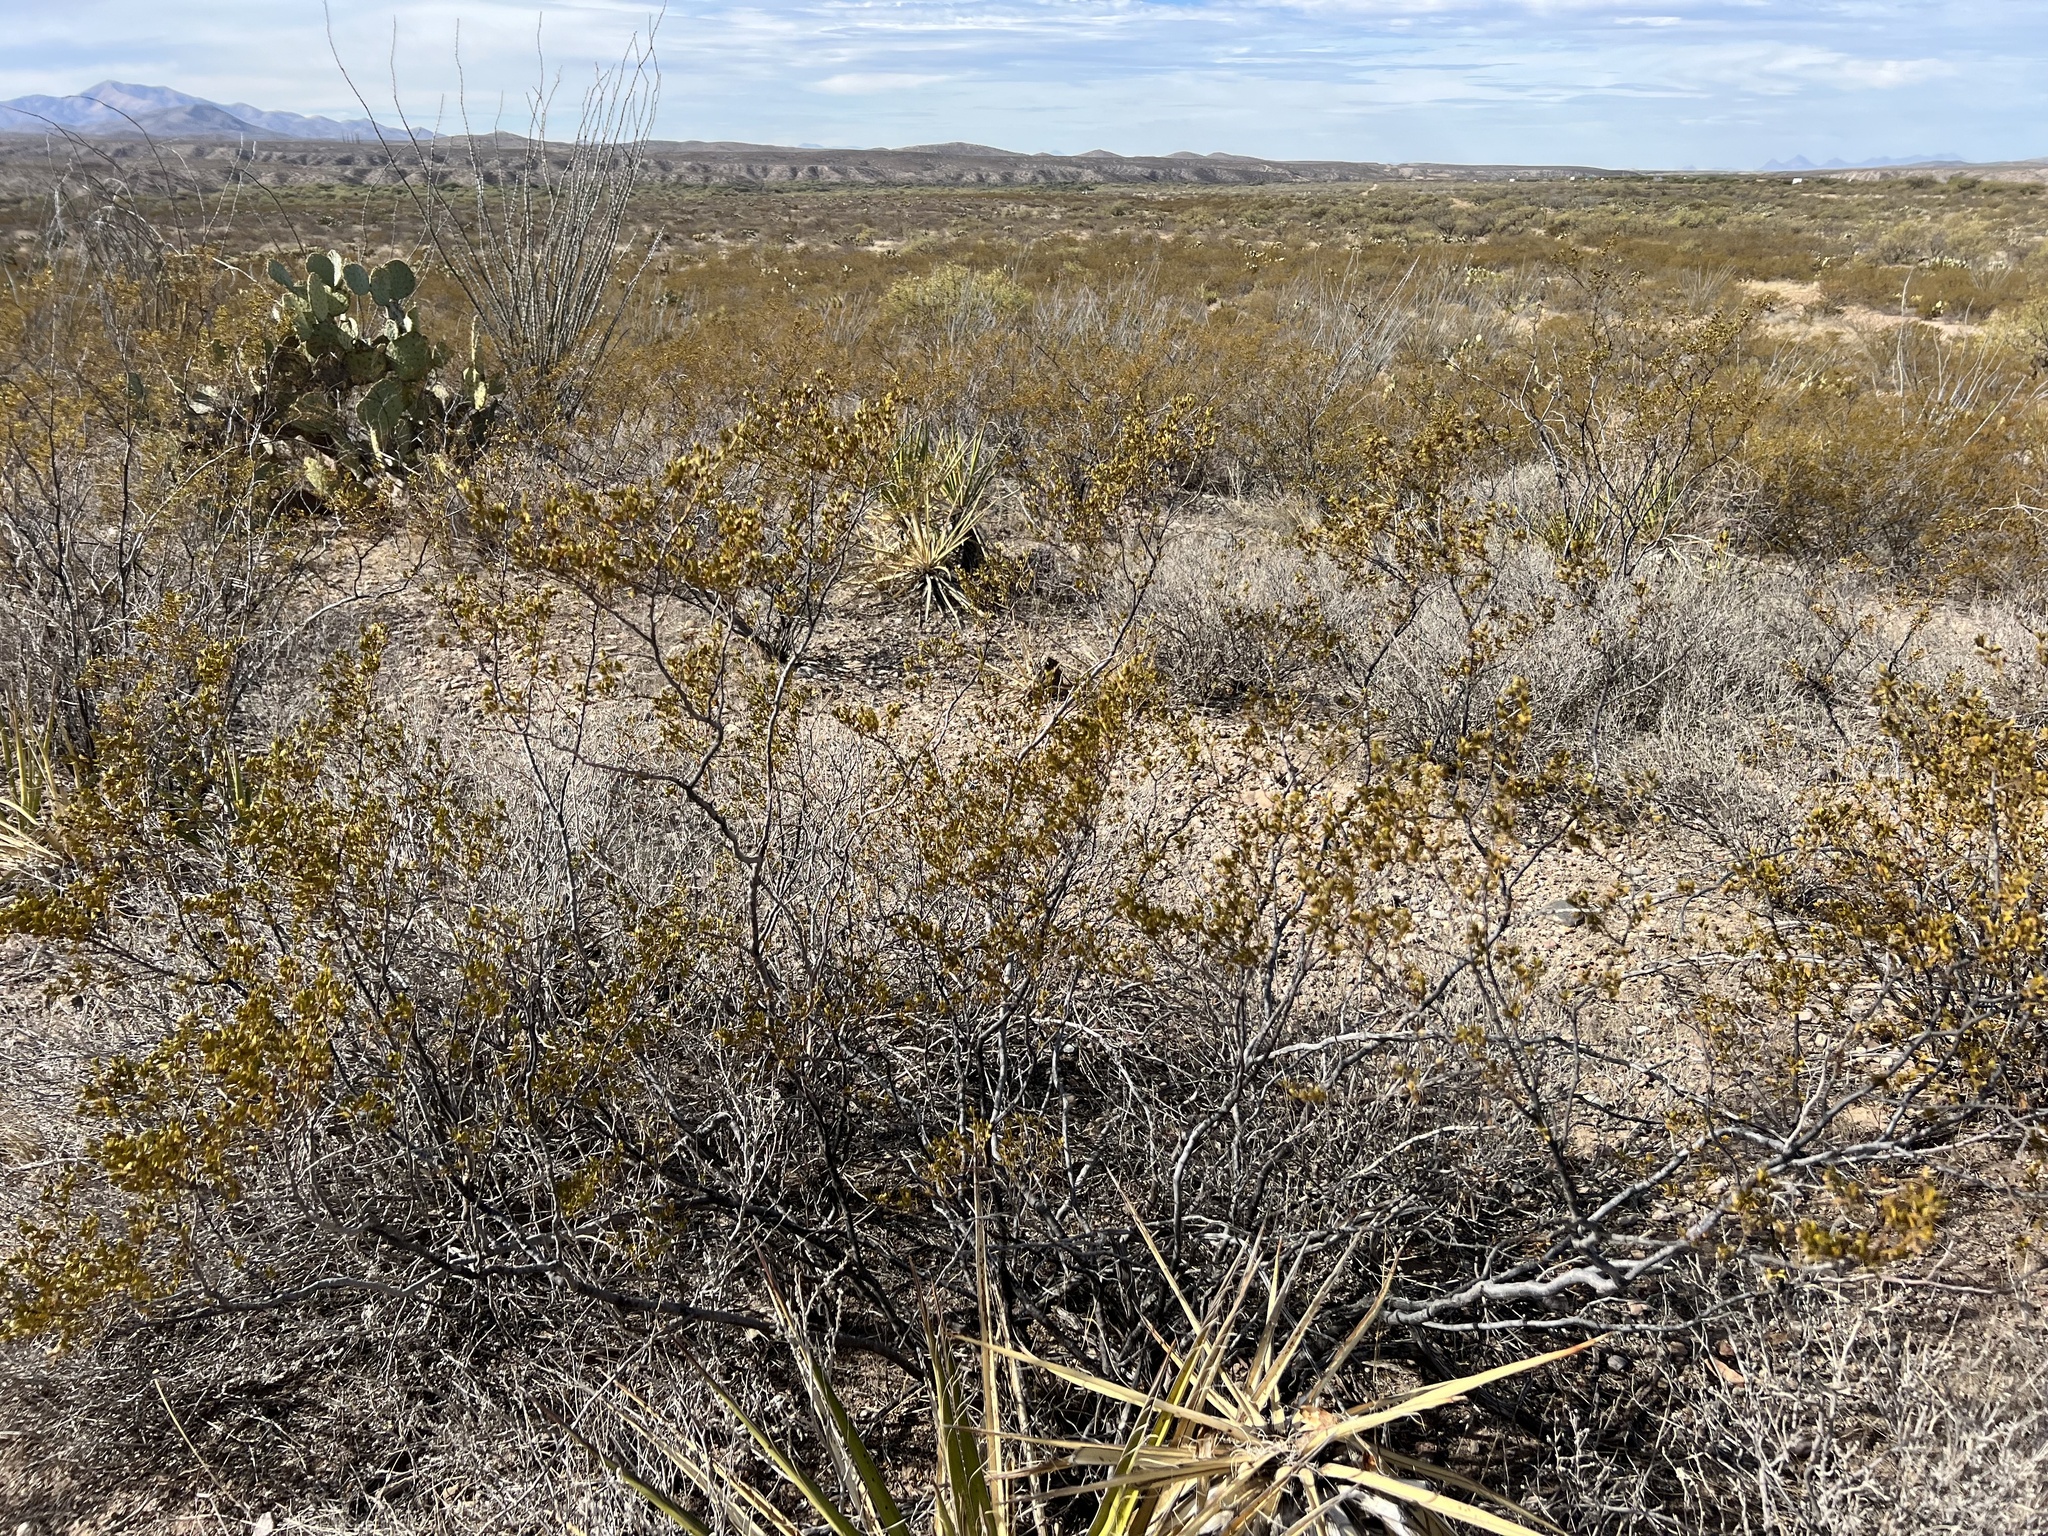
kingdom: Plantae
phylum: Tracheophyta
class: Magnoliopsida
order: Zygophyllales
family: Zygophyllaceae
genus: Larrea
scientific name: Larrea tridentata
